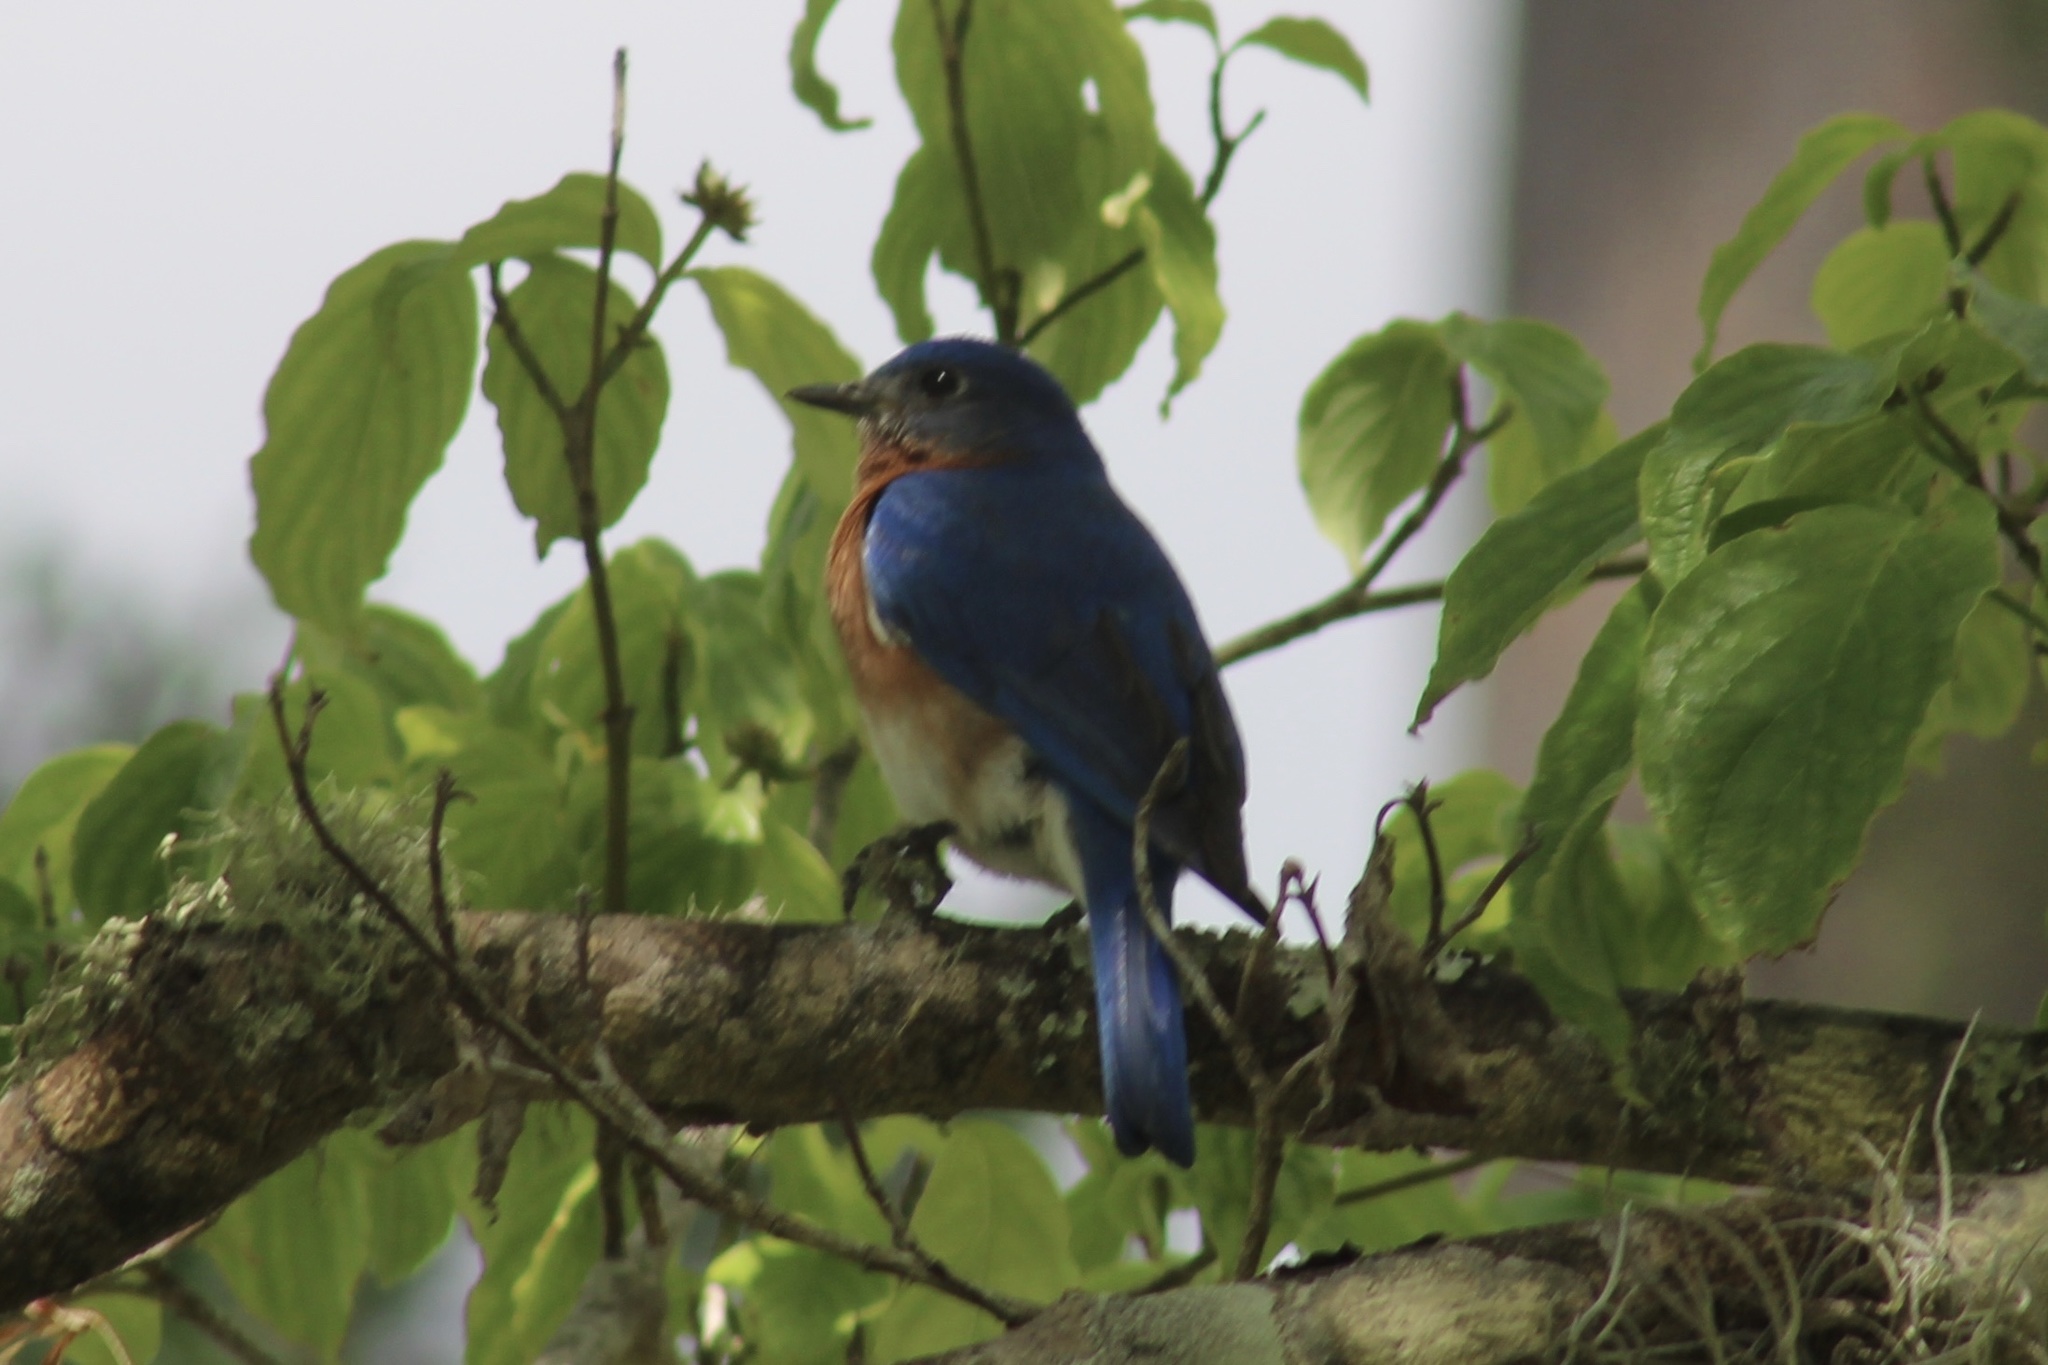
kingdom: Animalia
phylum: Chordata
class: Aves
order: Passeriformes
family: Turdidae
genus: Sialia
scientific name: Sialia sialis
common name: Eastern bluebird
